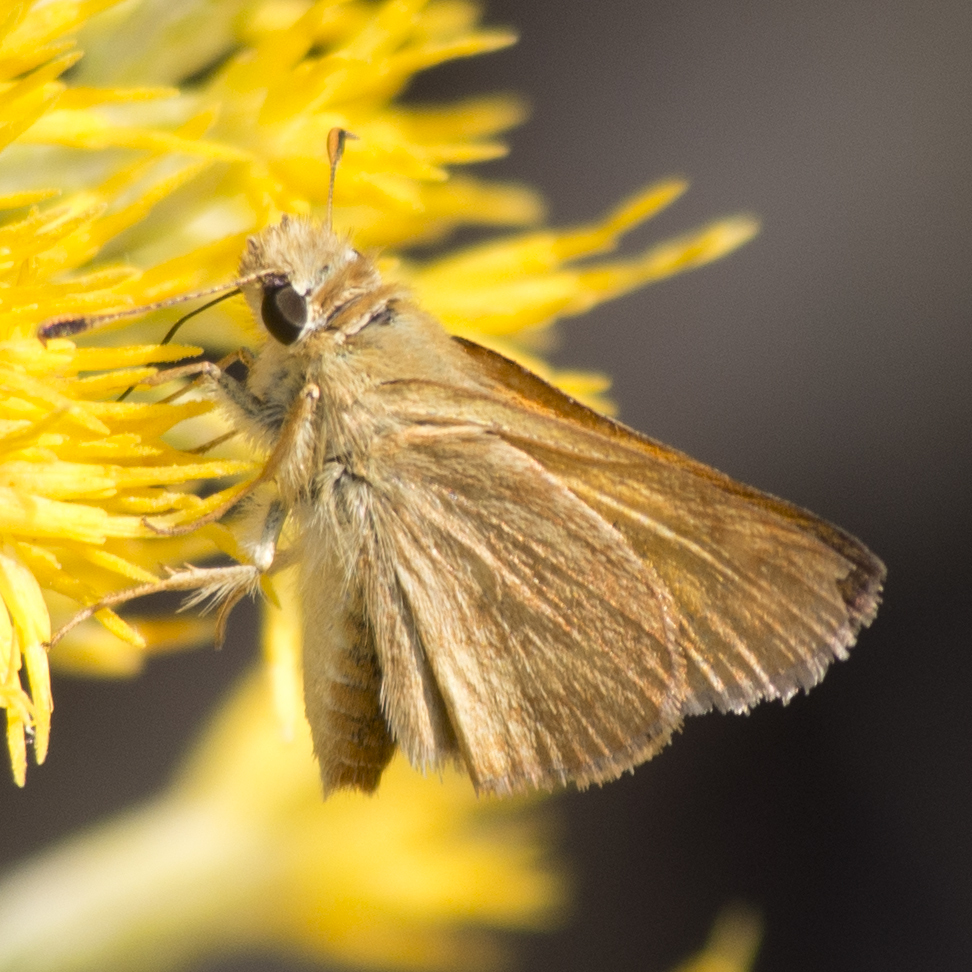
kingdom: Animalia
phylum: Arthropoda
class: Insecta
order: Lepidoptera
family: Hesperiidae
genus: Ochlodes
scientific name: Ochlodes sylvanoides
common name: Woodland skipper
